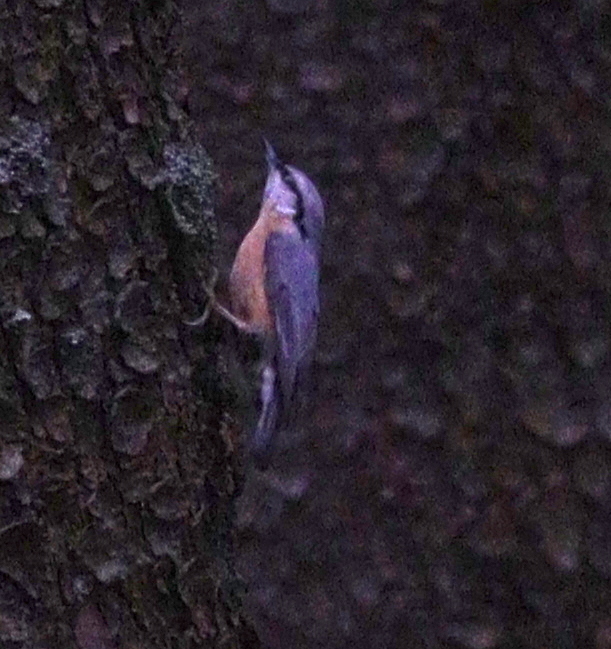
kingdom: Animalia
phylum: Chordata
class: Aves
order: Passeriformes
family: Sittidae
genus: Sitta
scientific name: Sitta europaea
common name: Eurasian nuthatch
